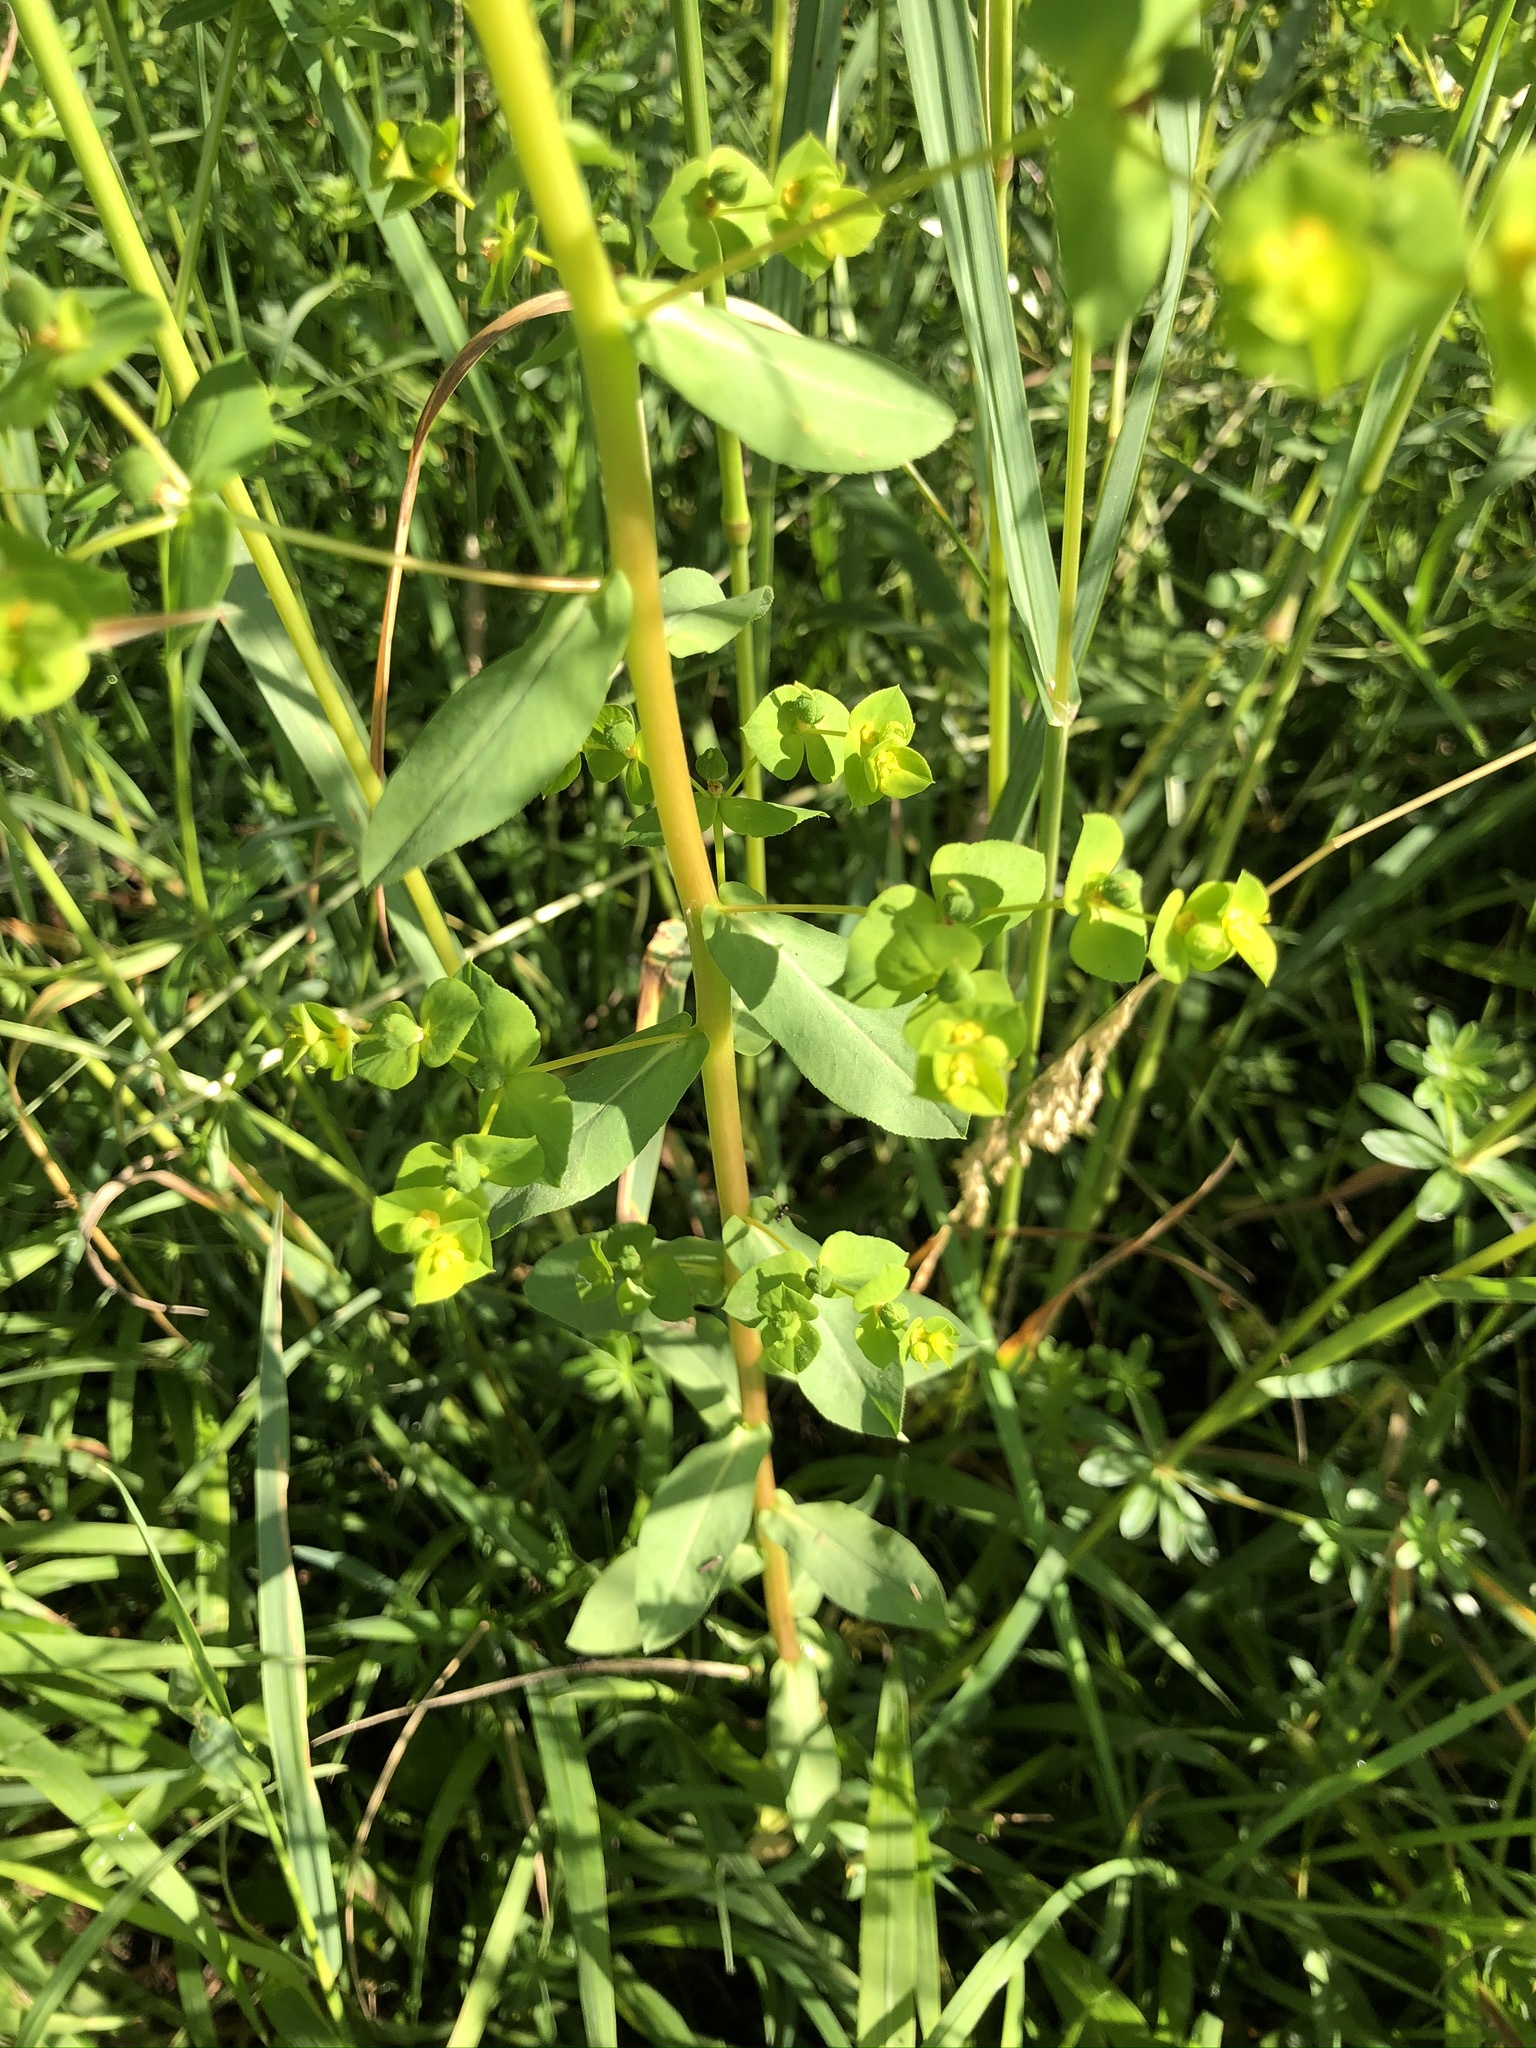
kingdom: Plantae
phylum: Tracheophyta
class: Magnoliopsida
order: Malpighiales
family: Euphorbiaceae
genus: Euphorbia
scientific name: Euphorbia platyphyllos
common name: Broad-leaved spurge
